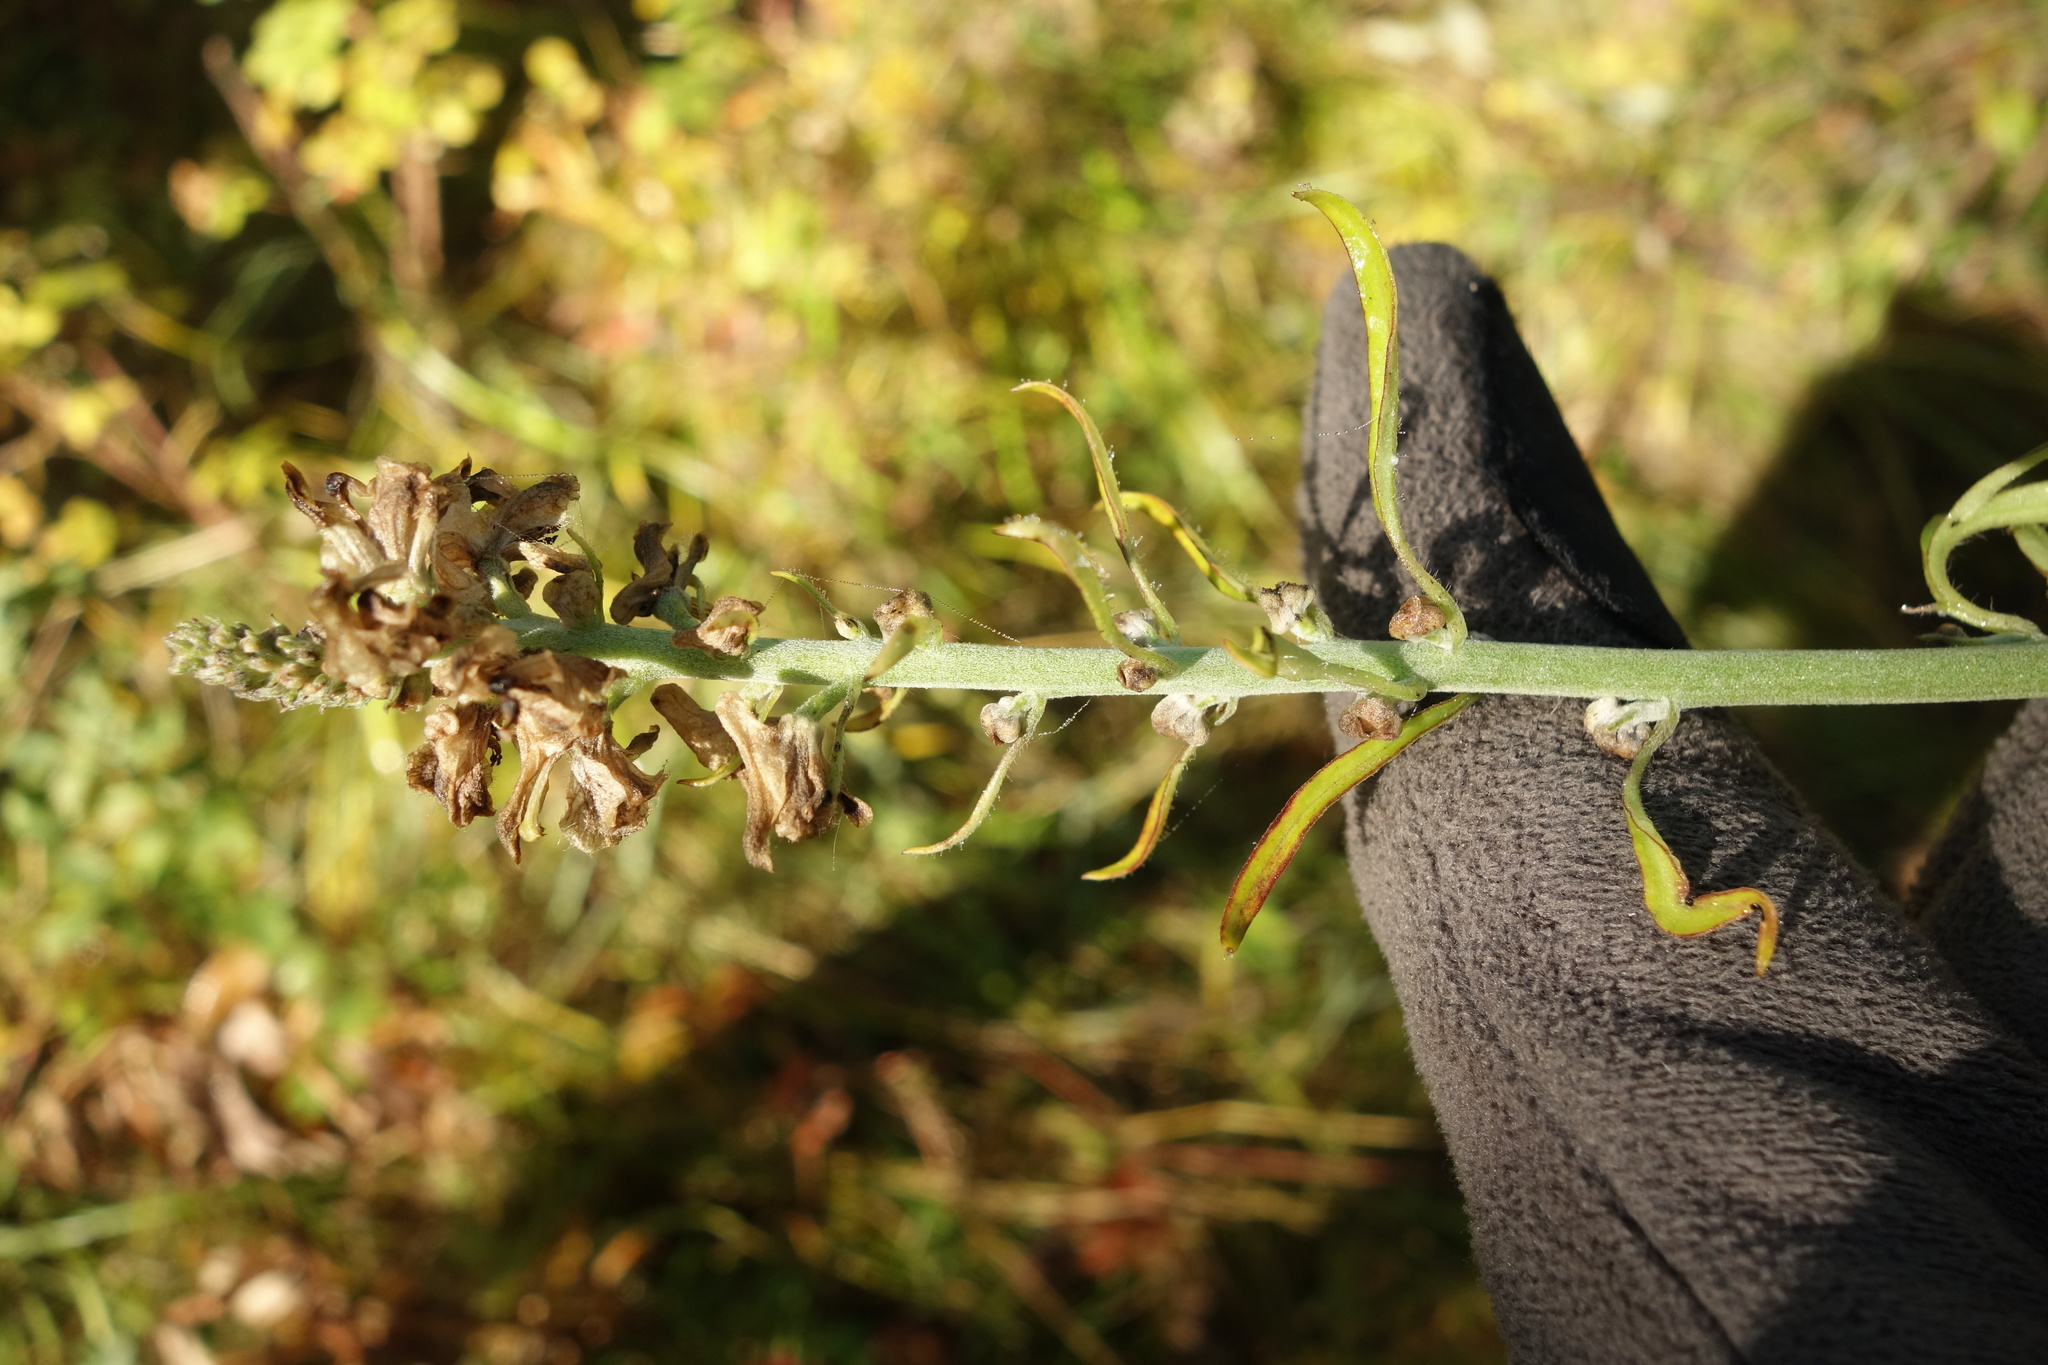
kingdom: Plantae
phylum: Tracheophyta
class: Magnoliopsida
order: Ranunculales
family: Ranunculaceae
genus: Aconitum
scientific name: Aconitum barbatum
